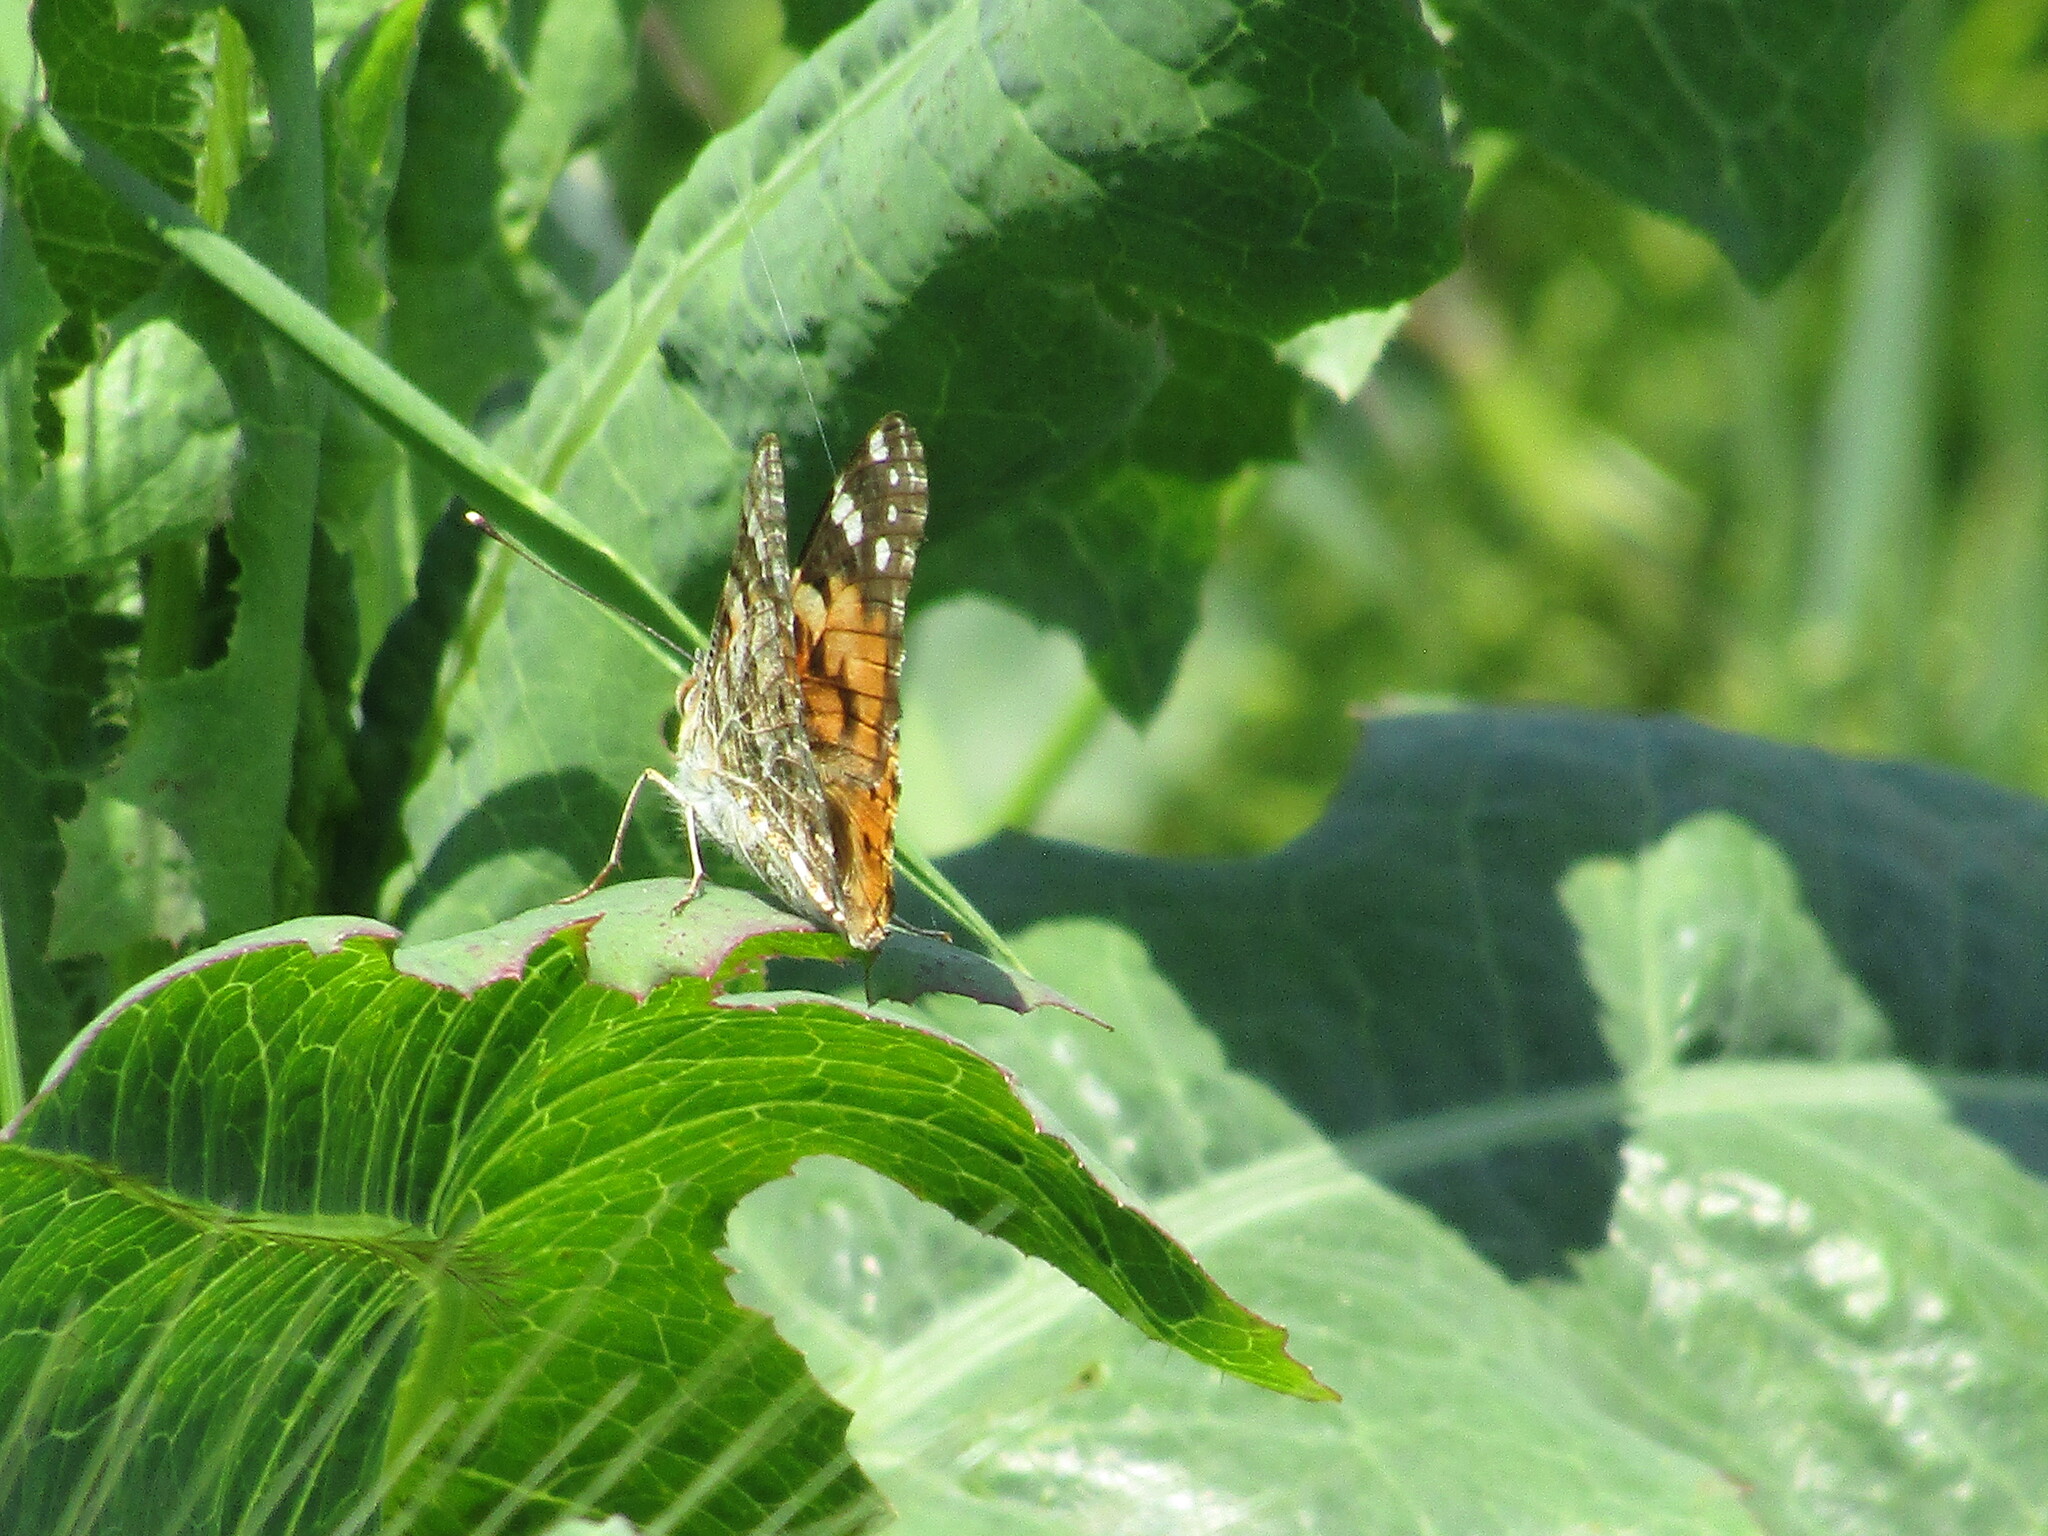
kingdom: Animalia
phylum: Arthropoda
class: Insecta
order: Lepidoptera
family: Nymphalidae
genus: Vanessa
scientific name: Vanessa cardui
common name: Painted lady
